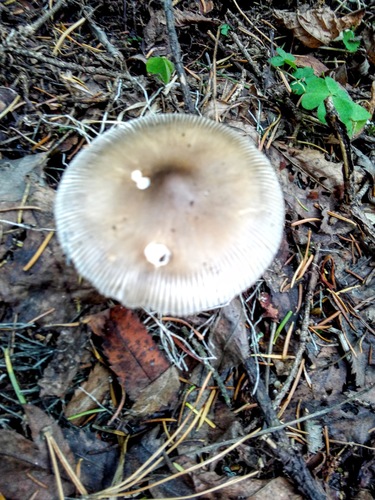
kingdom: Fungi
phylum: Basidiomycota
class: Agaricomycetes
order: Agaricales
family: Amanitaceae
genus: Amanita
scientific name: Amanita battarrae
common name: Banded amanita
